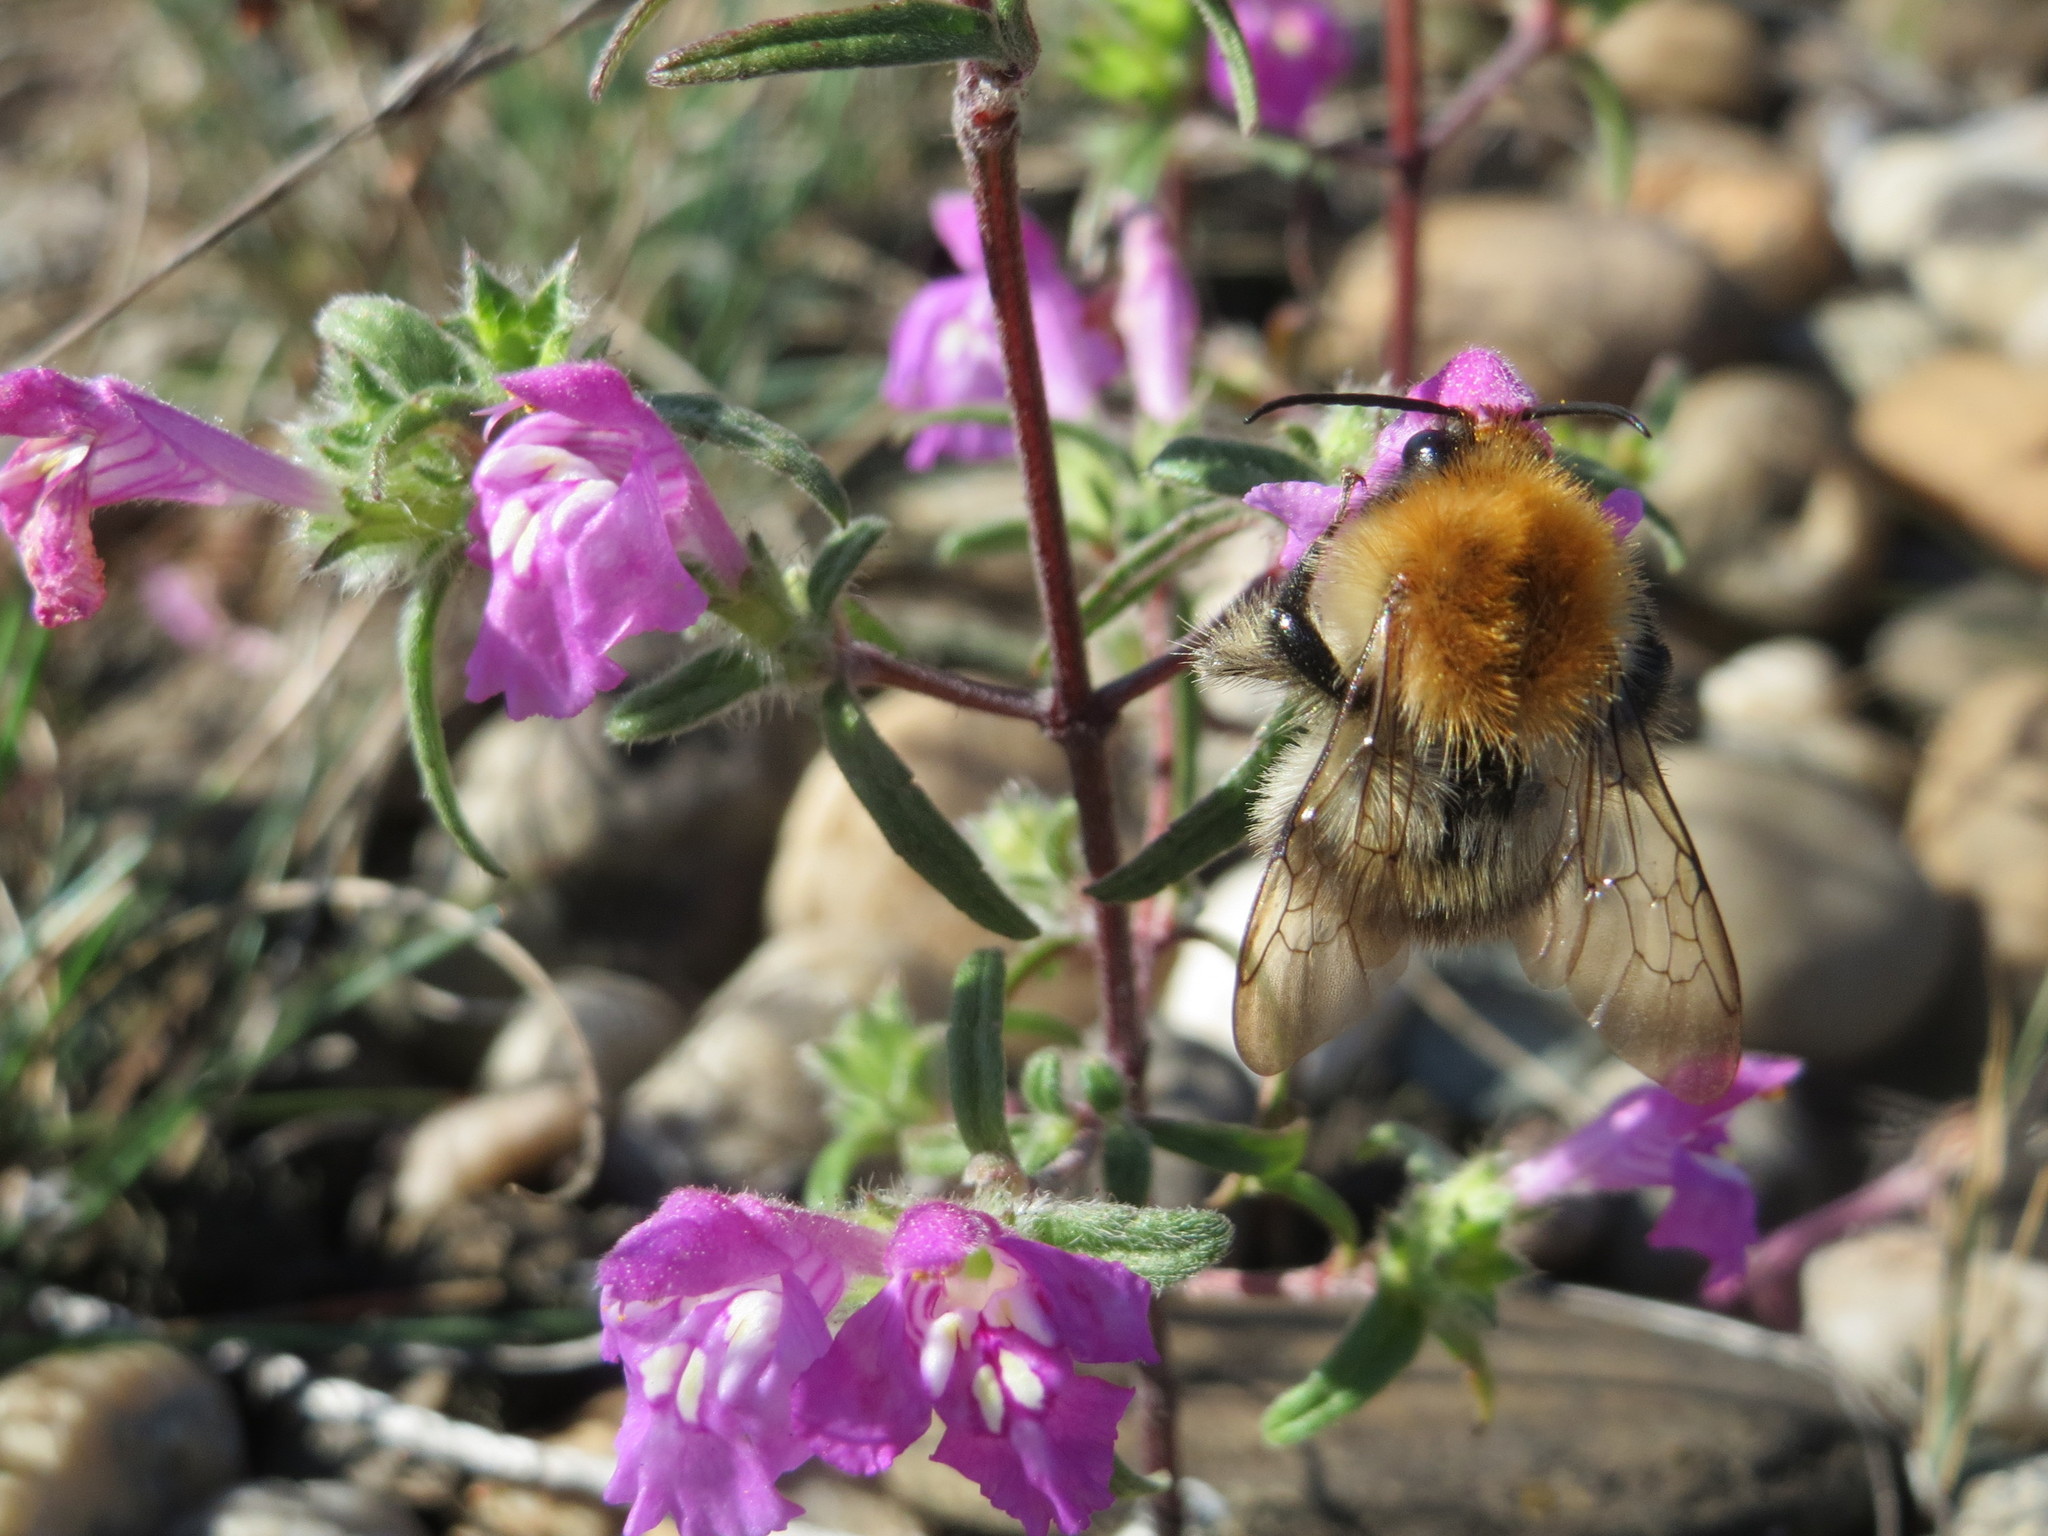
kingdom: Plantae
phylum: Tracheophyta
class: Magnoliopsida
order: Lamiales
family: Lamiaceae
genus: Galeopsis
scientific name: Galeopsis angustifolia
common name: Red hemp-nettle
